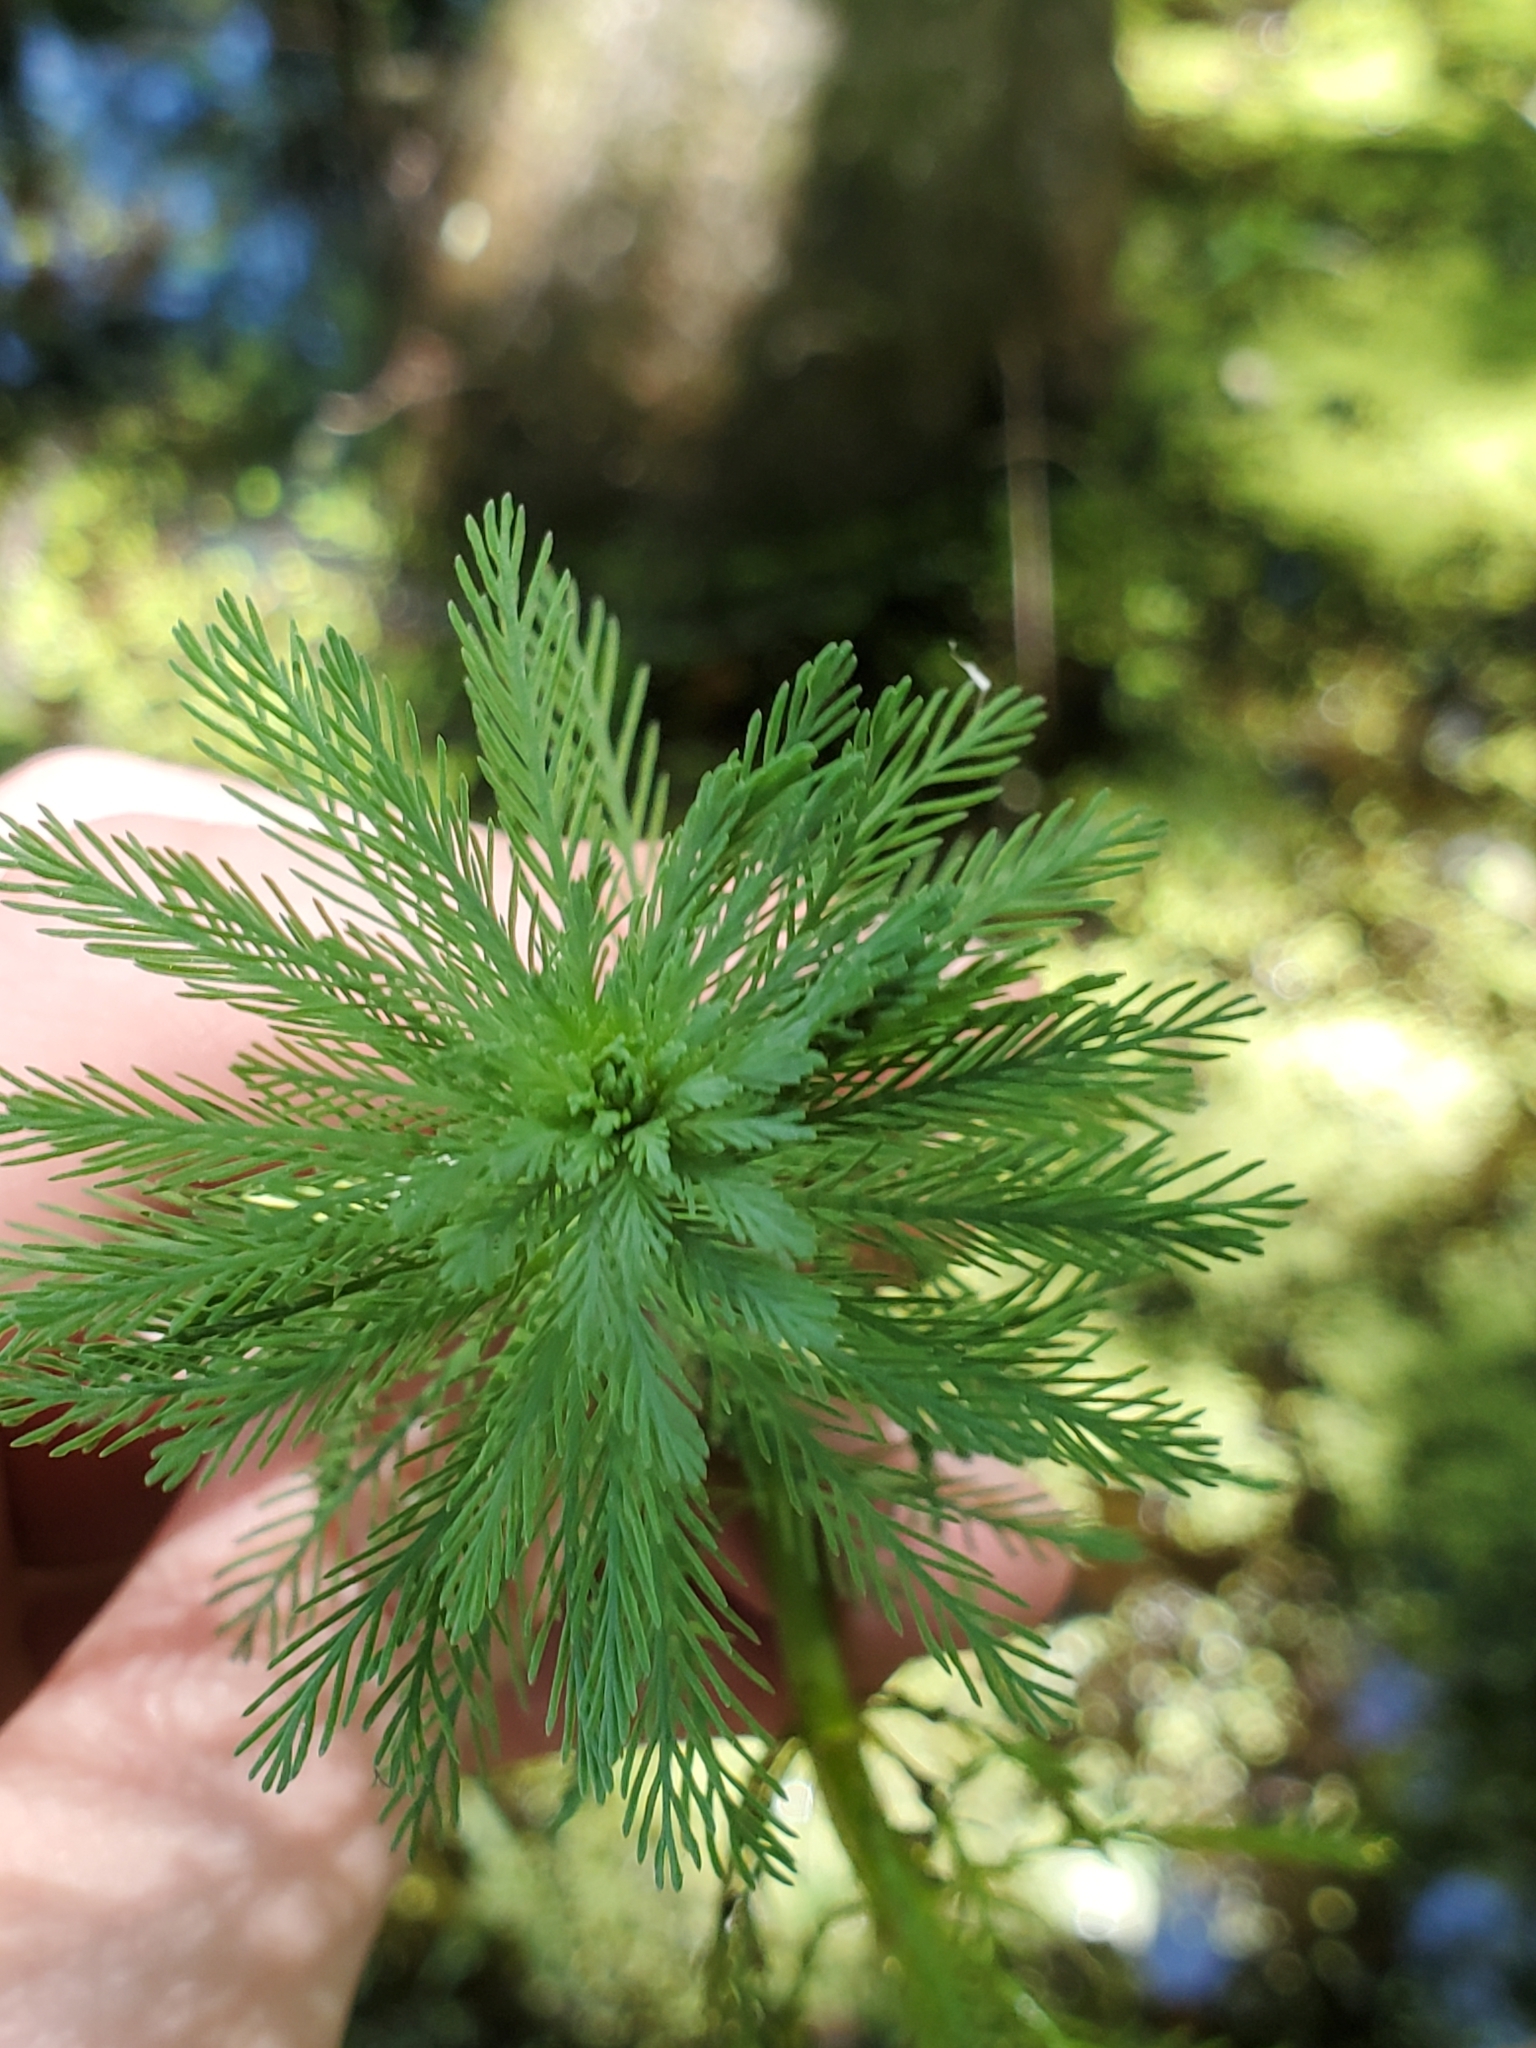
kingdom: Plantae
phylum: Tracheophyta
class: Magnoliopsida
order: Saxifragales
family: Haloragaceae
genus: Myriophyllum
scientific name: Myriophyllum aquaticum
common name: Parrot's feather
